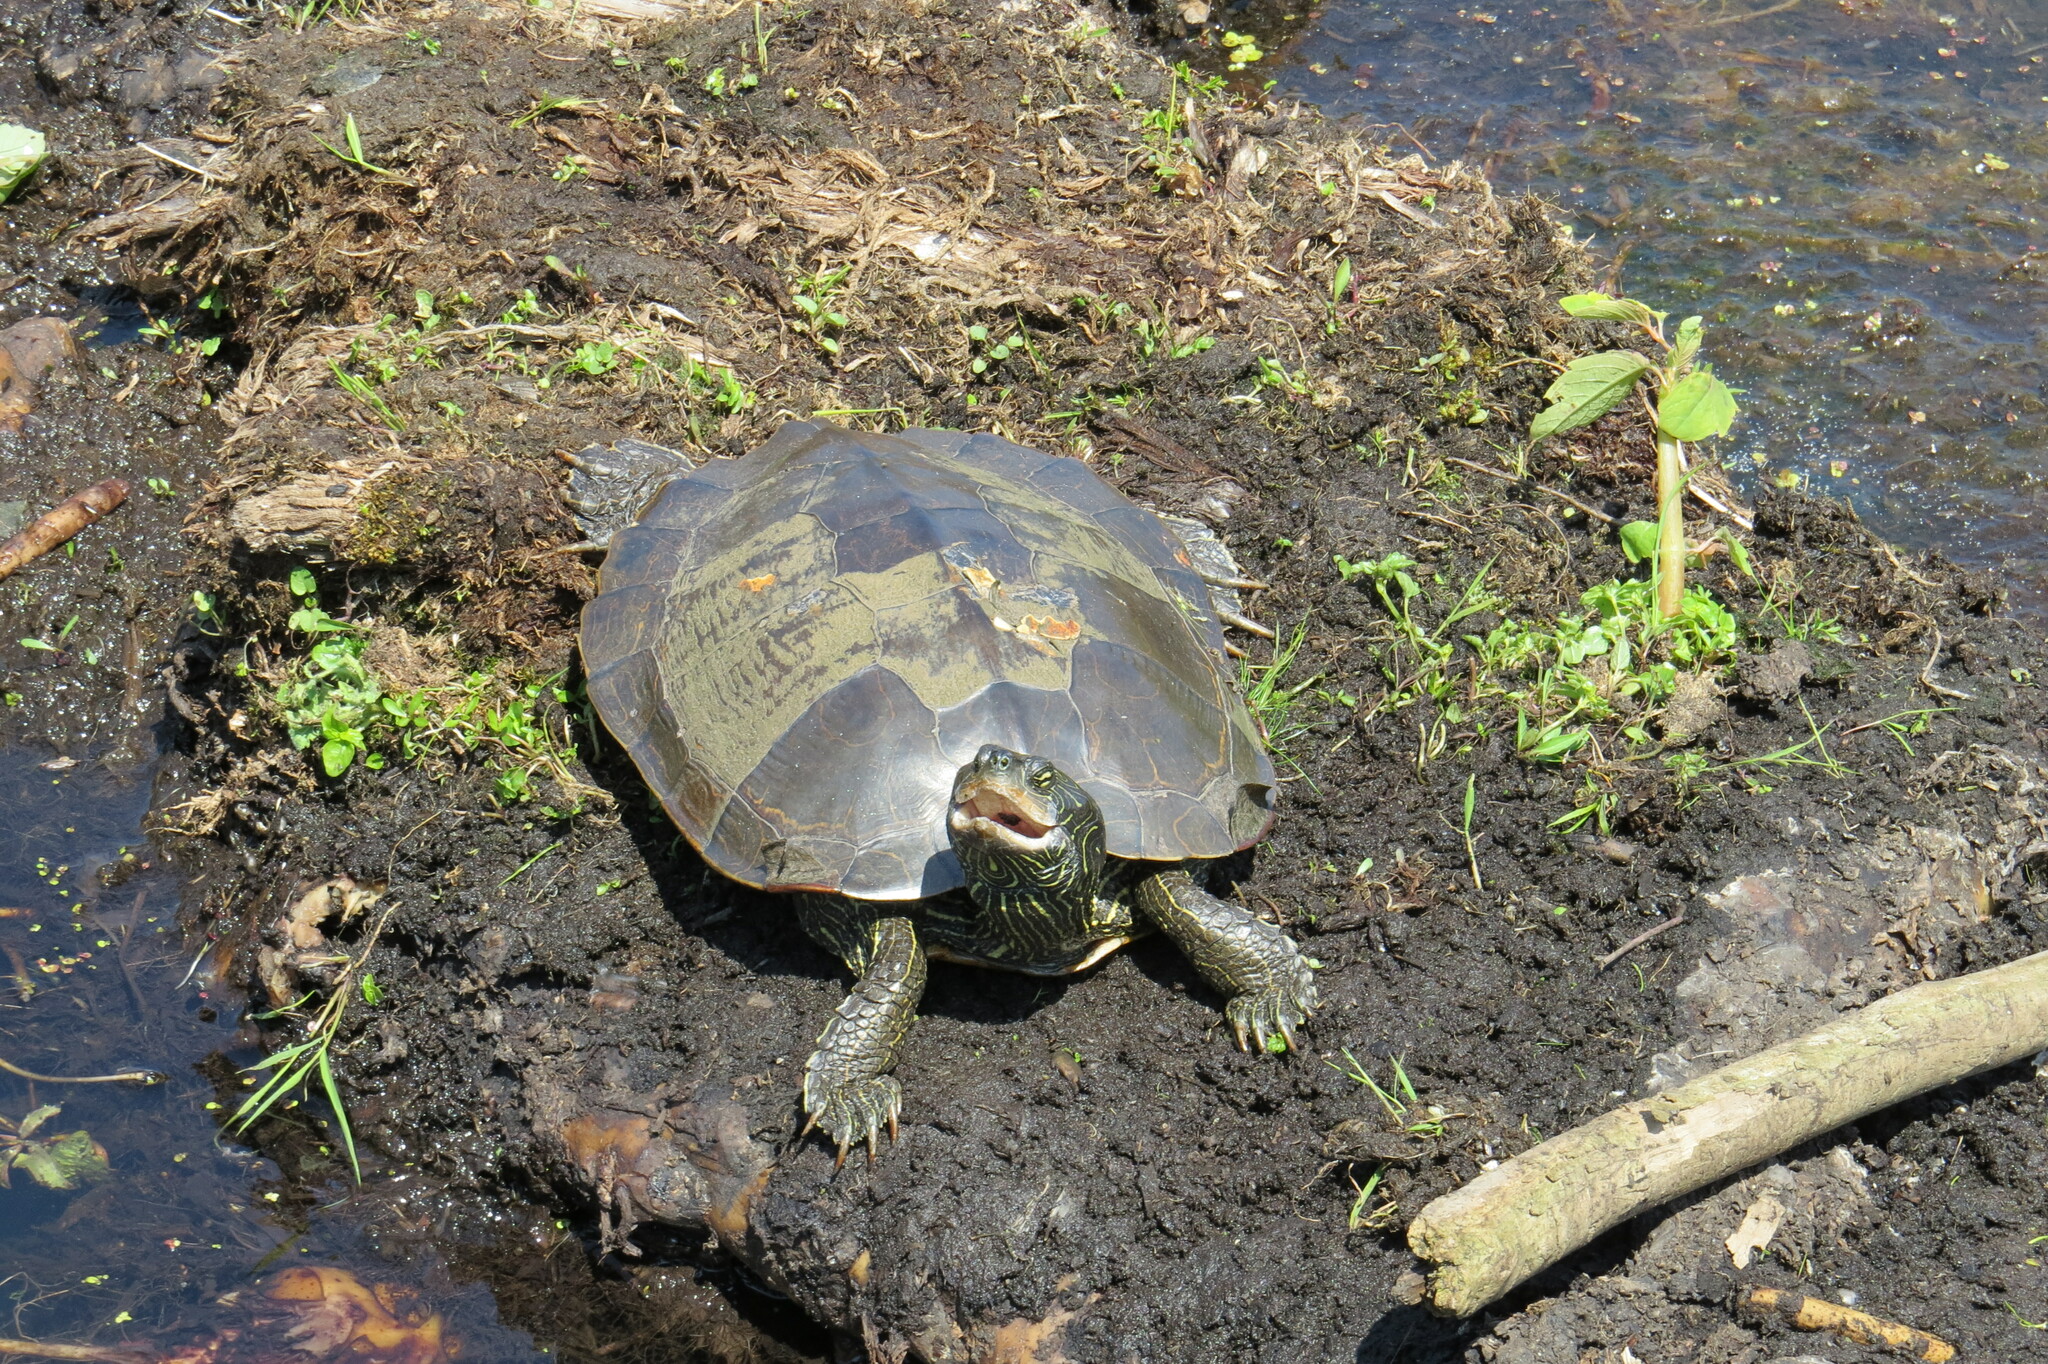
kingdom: Animalia
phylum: Chordata
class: Testudines
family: Emydidae
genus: Graptemys
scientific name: Graptemys geographica
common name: Common map turtle
